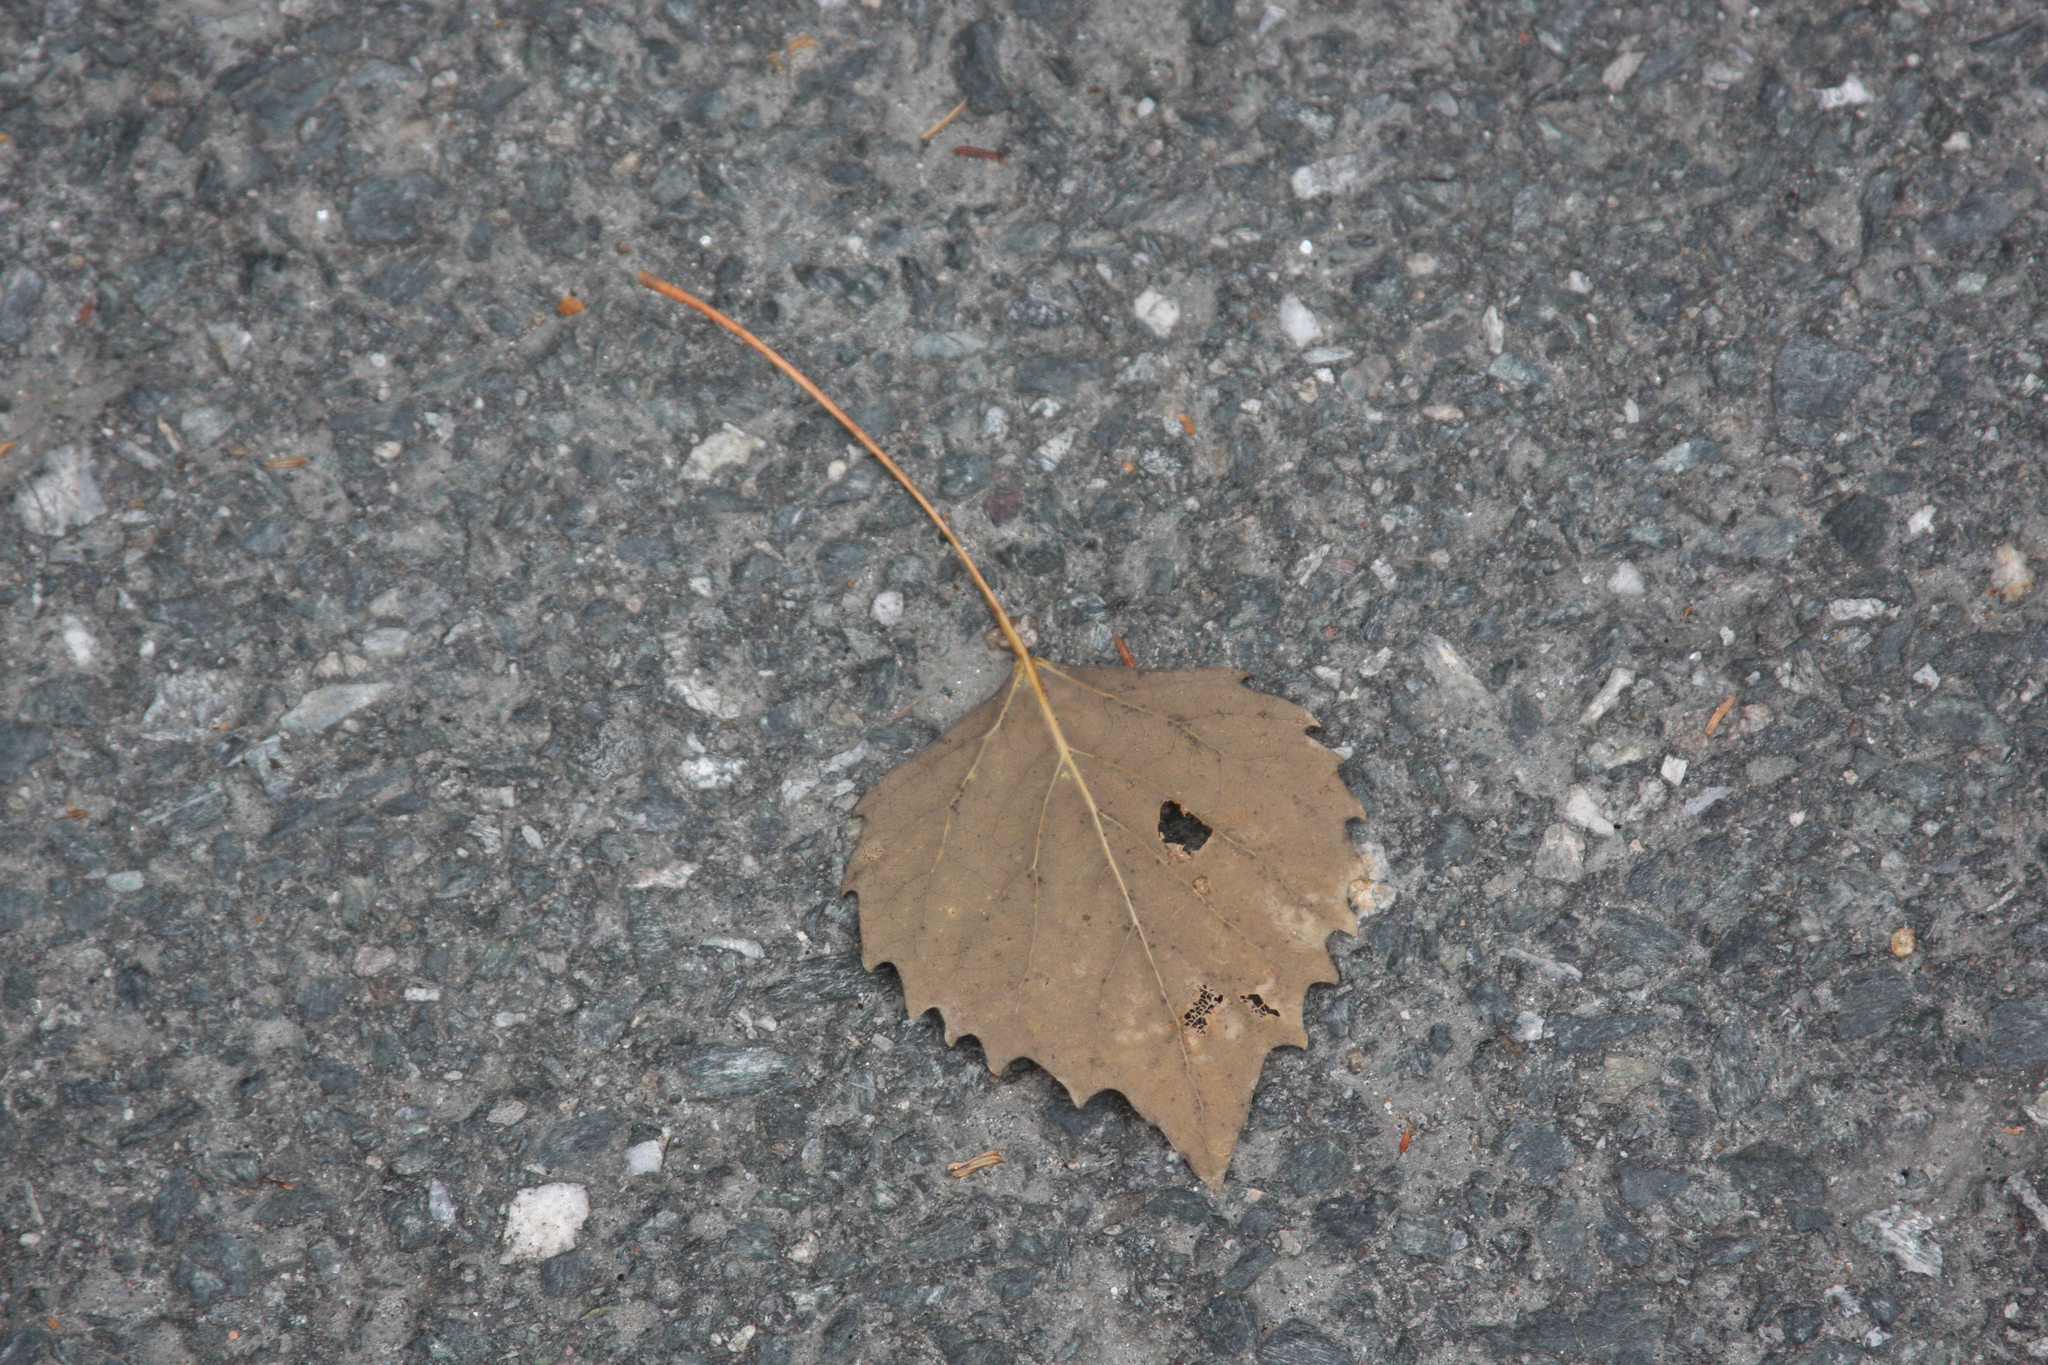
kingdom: Plantae
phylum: Tracheophyta
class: Magnoliopsida
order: Malpighiales
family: Salicaceae
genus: Populus
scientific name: Populus grandidentata
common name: Bigtooth aspen
